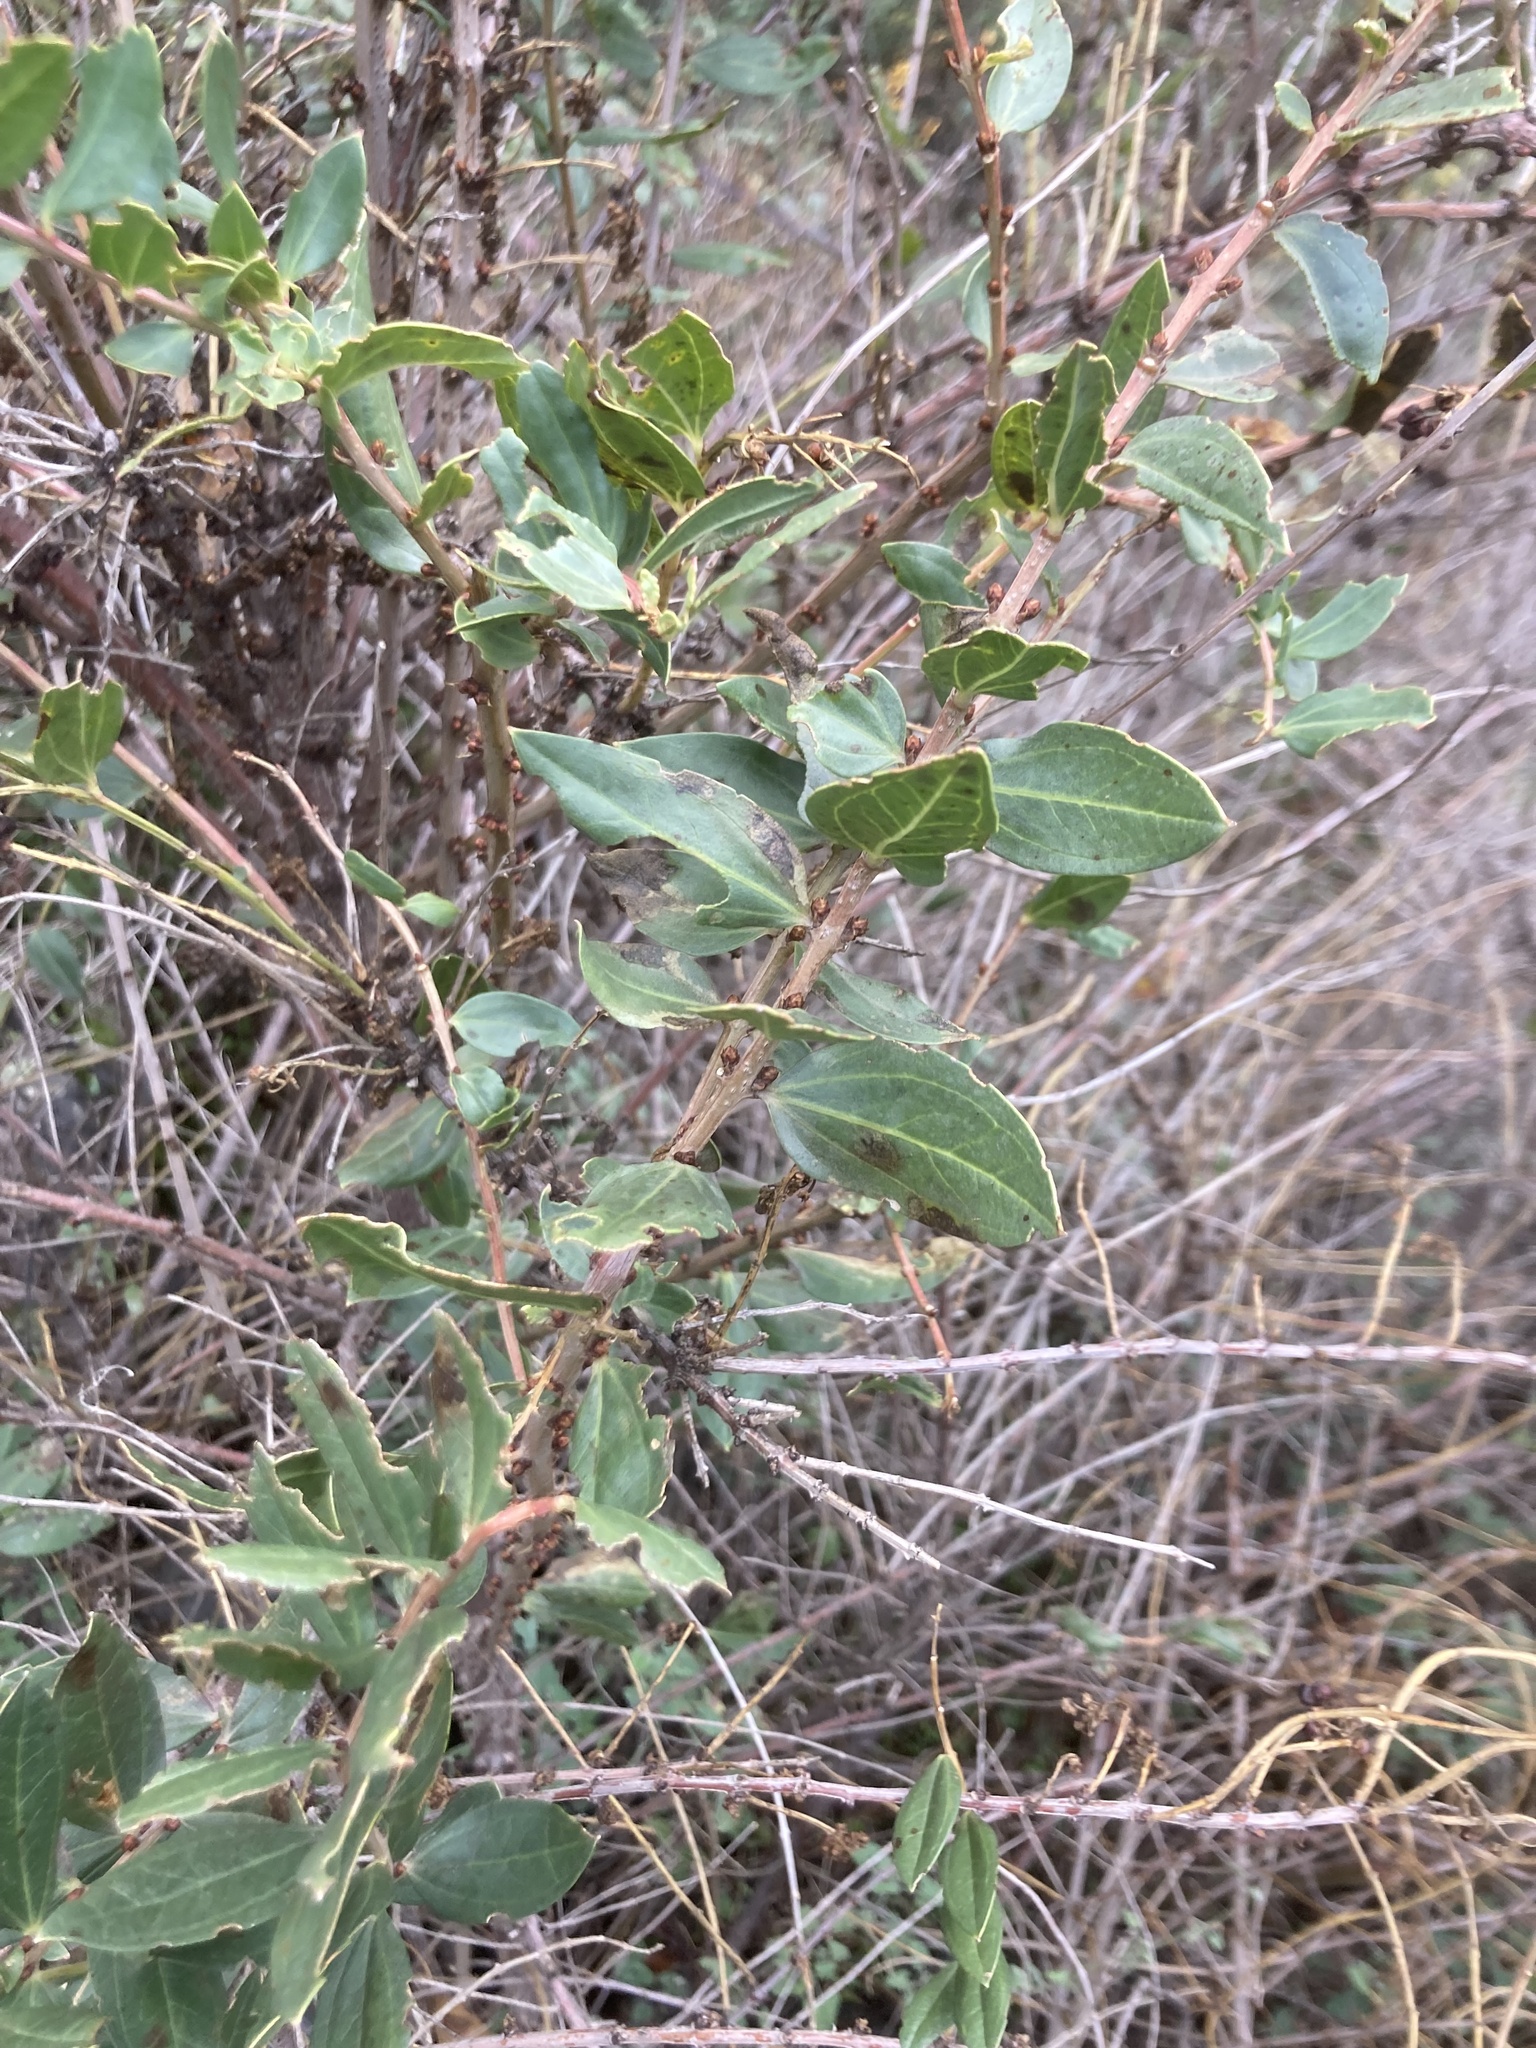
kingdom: Plantae
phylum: Tracheophyta
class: Magnoliopsida
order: Cucurbitales
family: Coriariaceae
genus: Coriaria
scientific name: Coriaria myrtifolia
